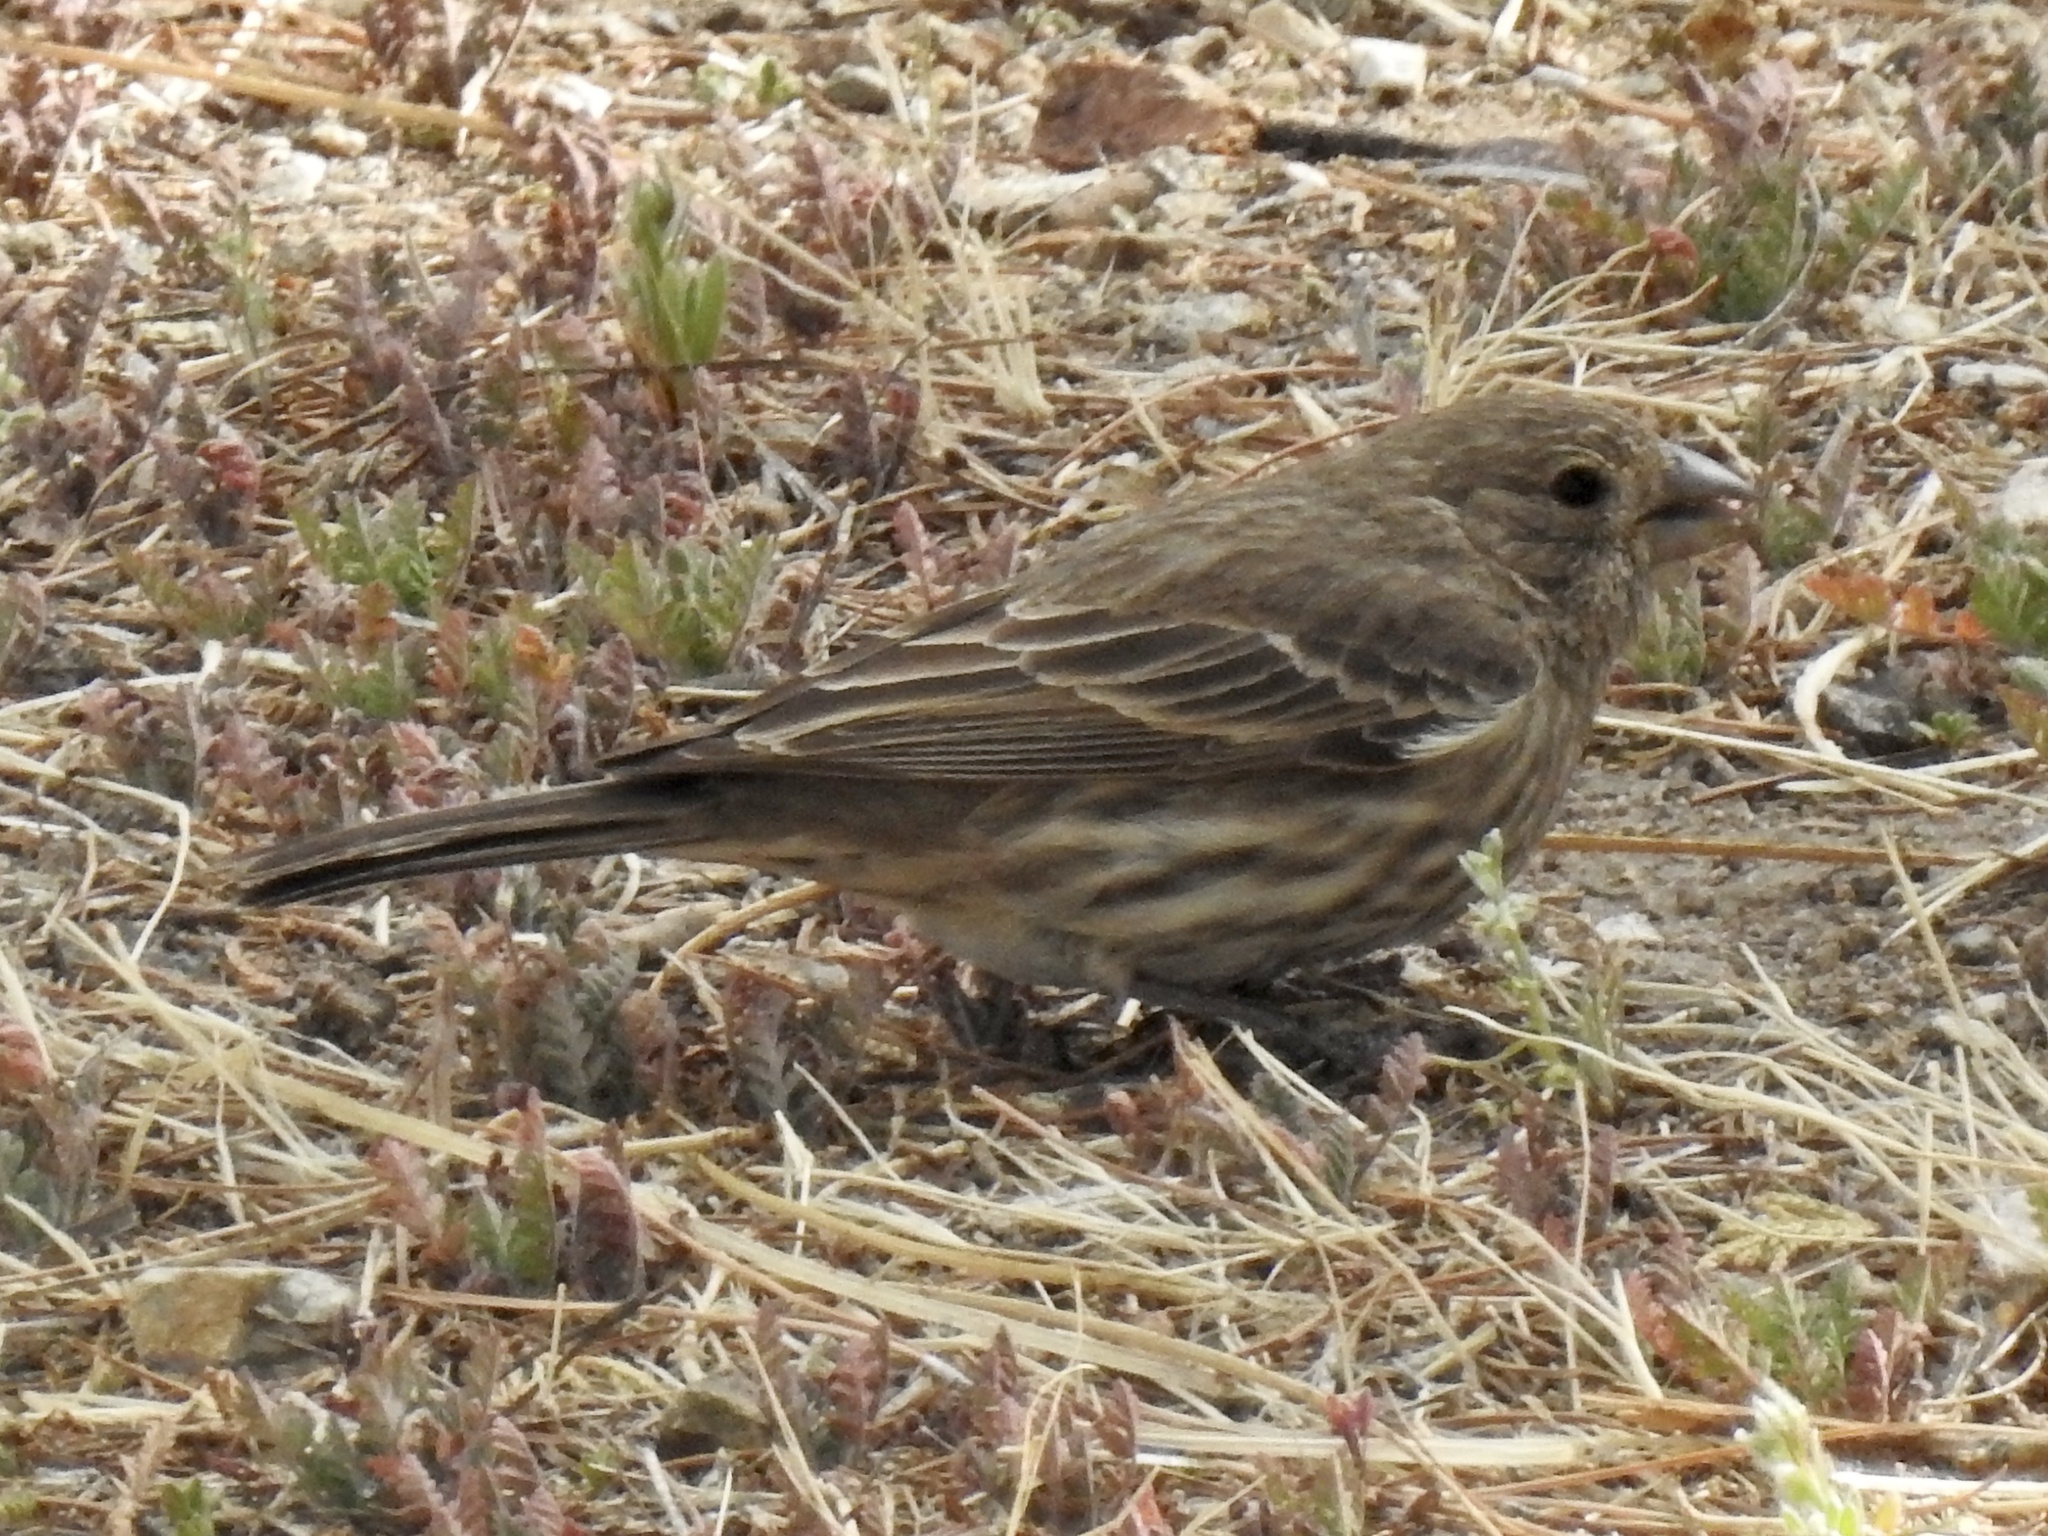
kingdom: Animalia
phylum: Chordata
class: Aves
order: Passeriformes
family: Fringillidae
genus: Haemorhous
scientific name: Haemorhous mexicanus
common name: House finch
